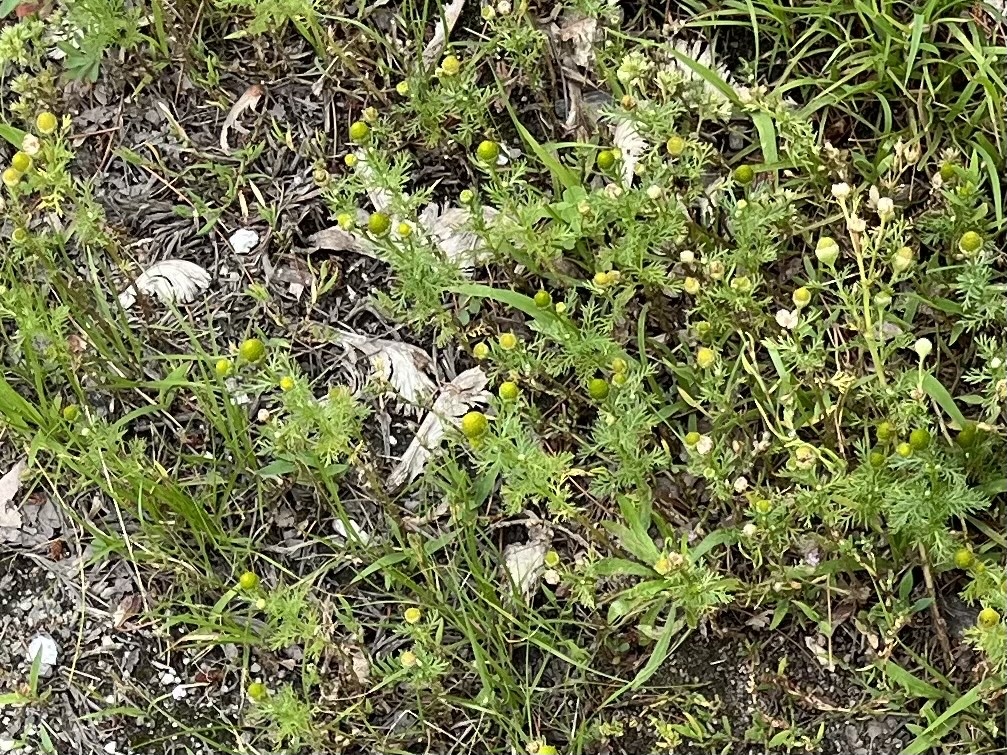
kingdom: Plantae
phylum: Tracheophyta
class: Magnoliopsida
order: Asterales
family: Asteraceae
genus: Matricaria
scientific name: Matricaria discoidea
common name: Disc mayweed
